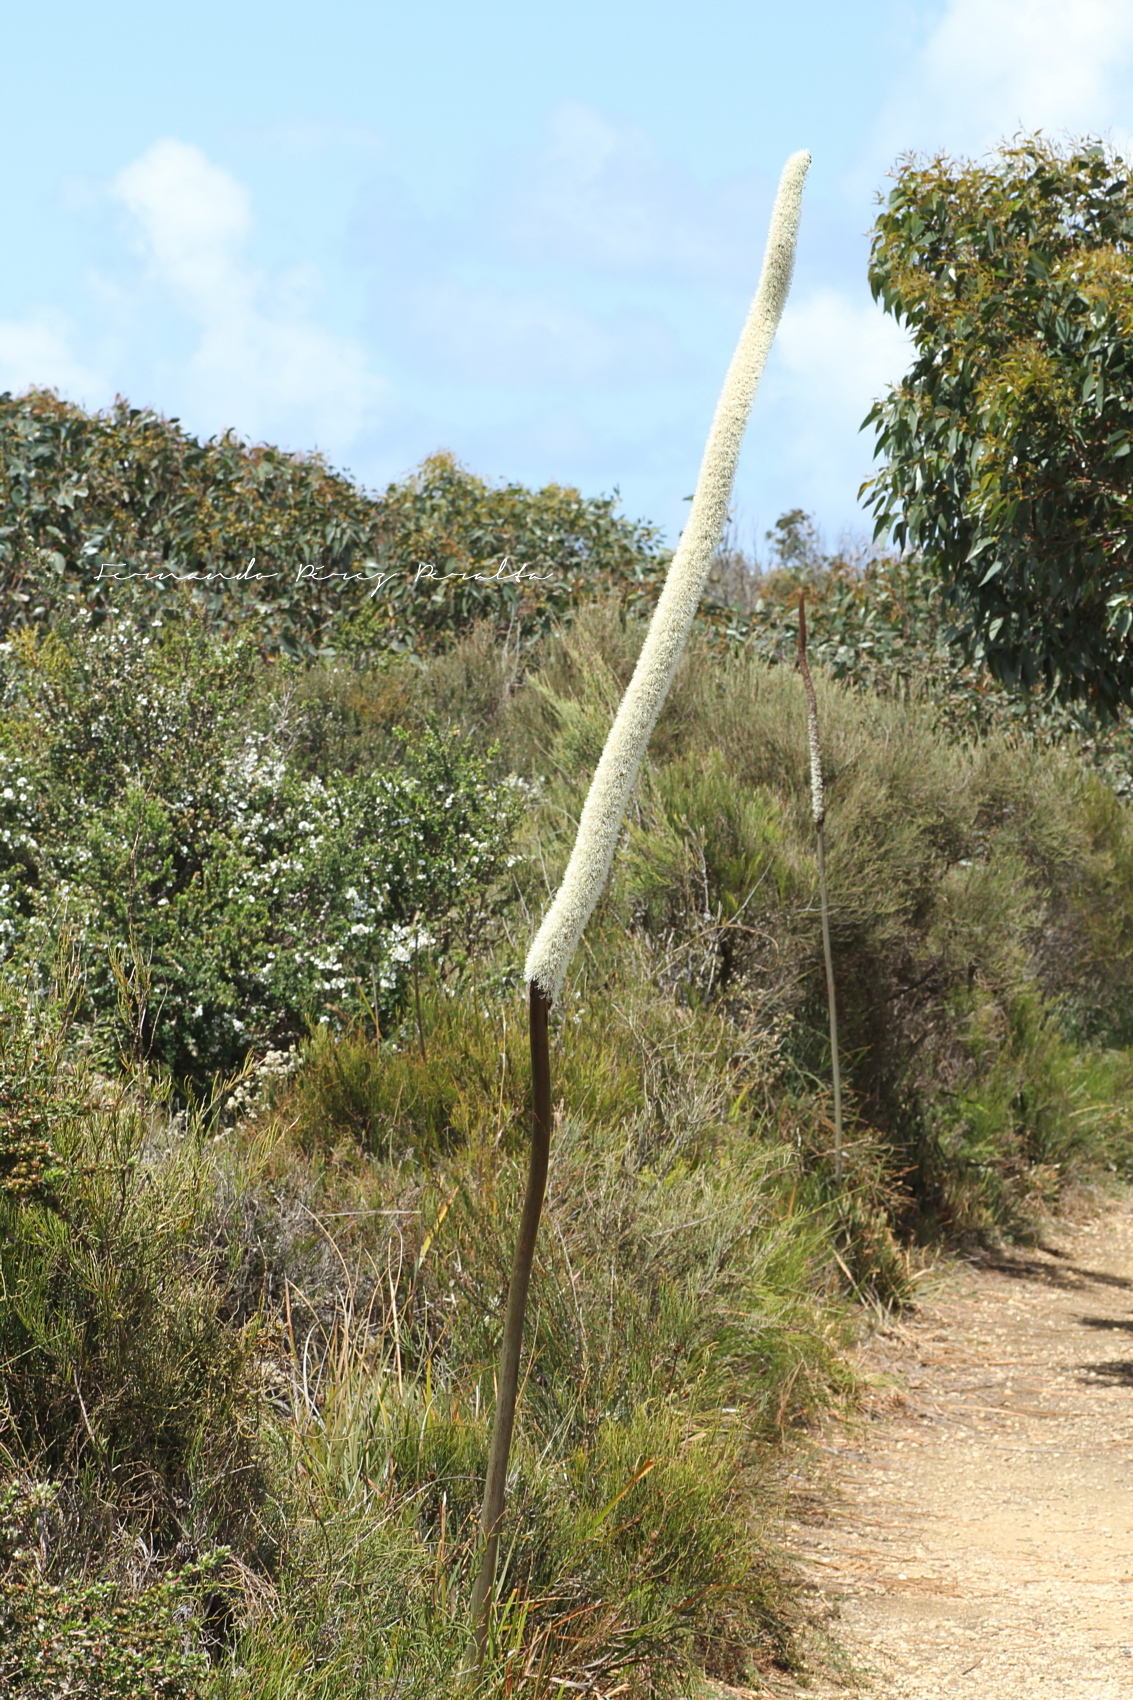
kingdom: Plantae
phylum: Tracheophyta
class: Liliopsida
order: Asparagales
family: Asphodelaceae
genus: Xanthorrhoea
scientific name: Xanthorrhoea minor
